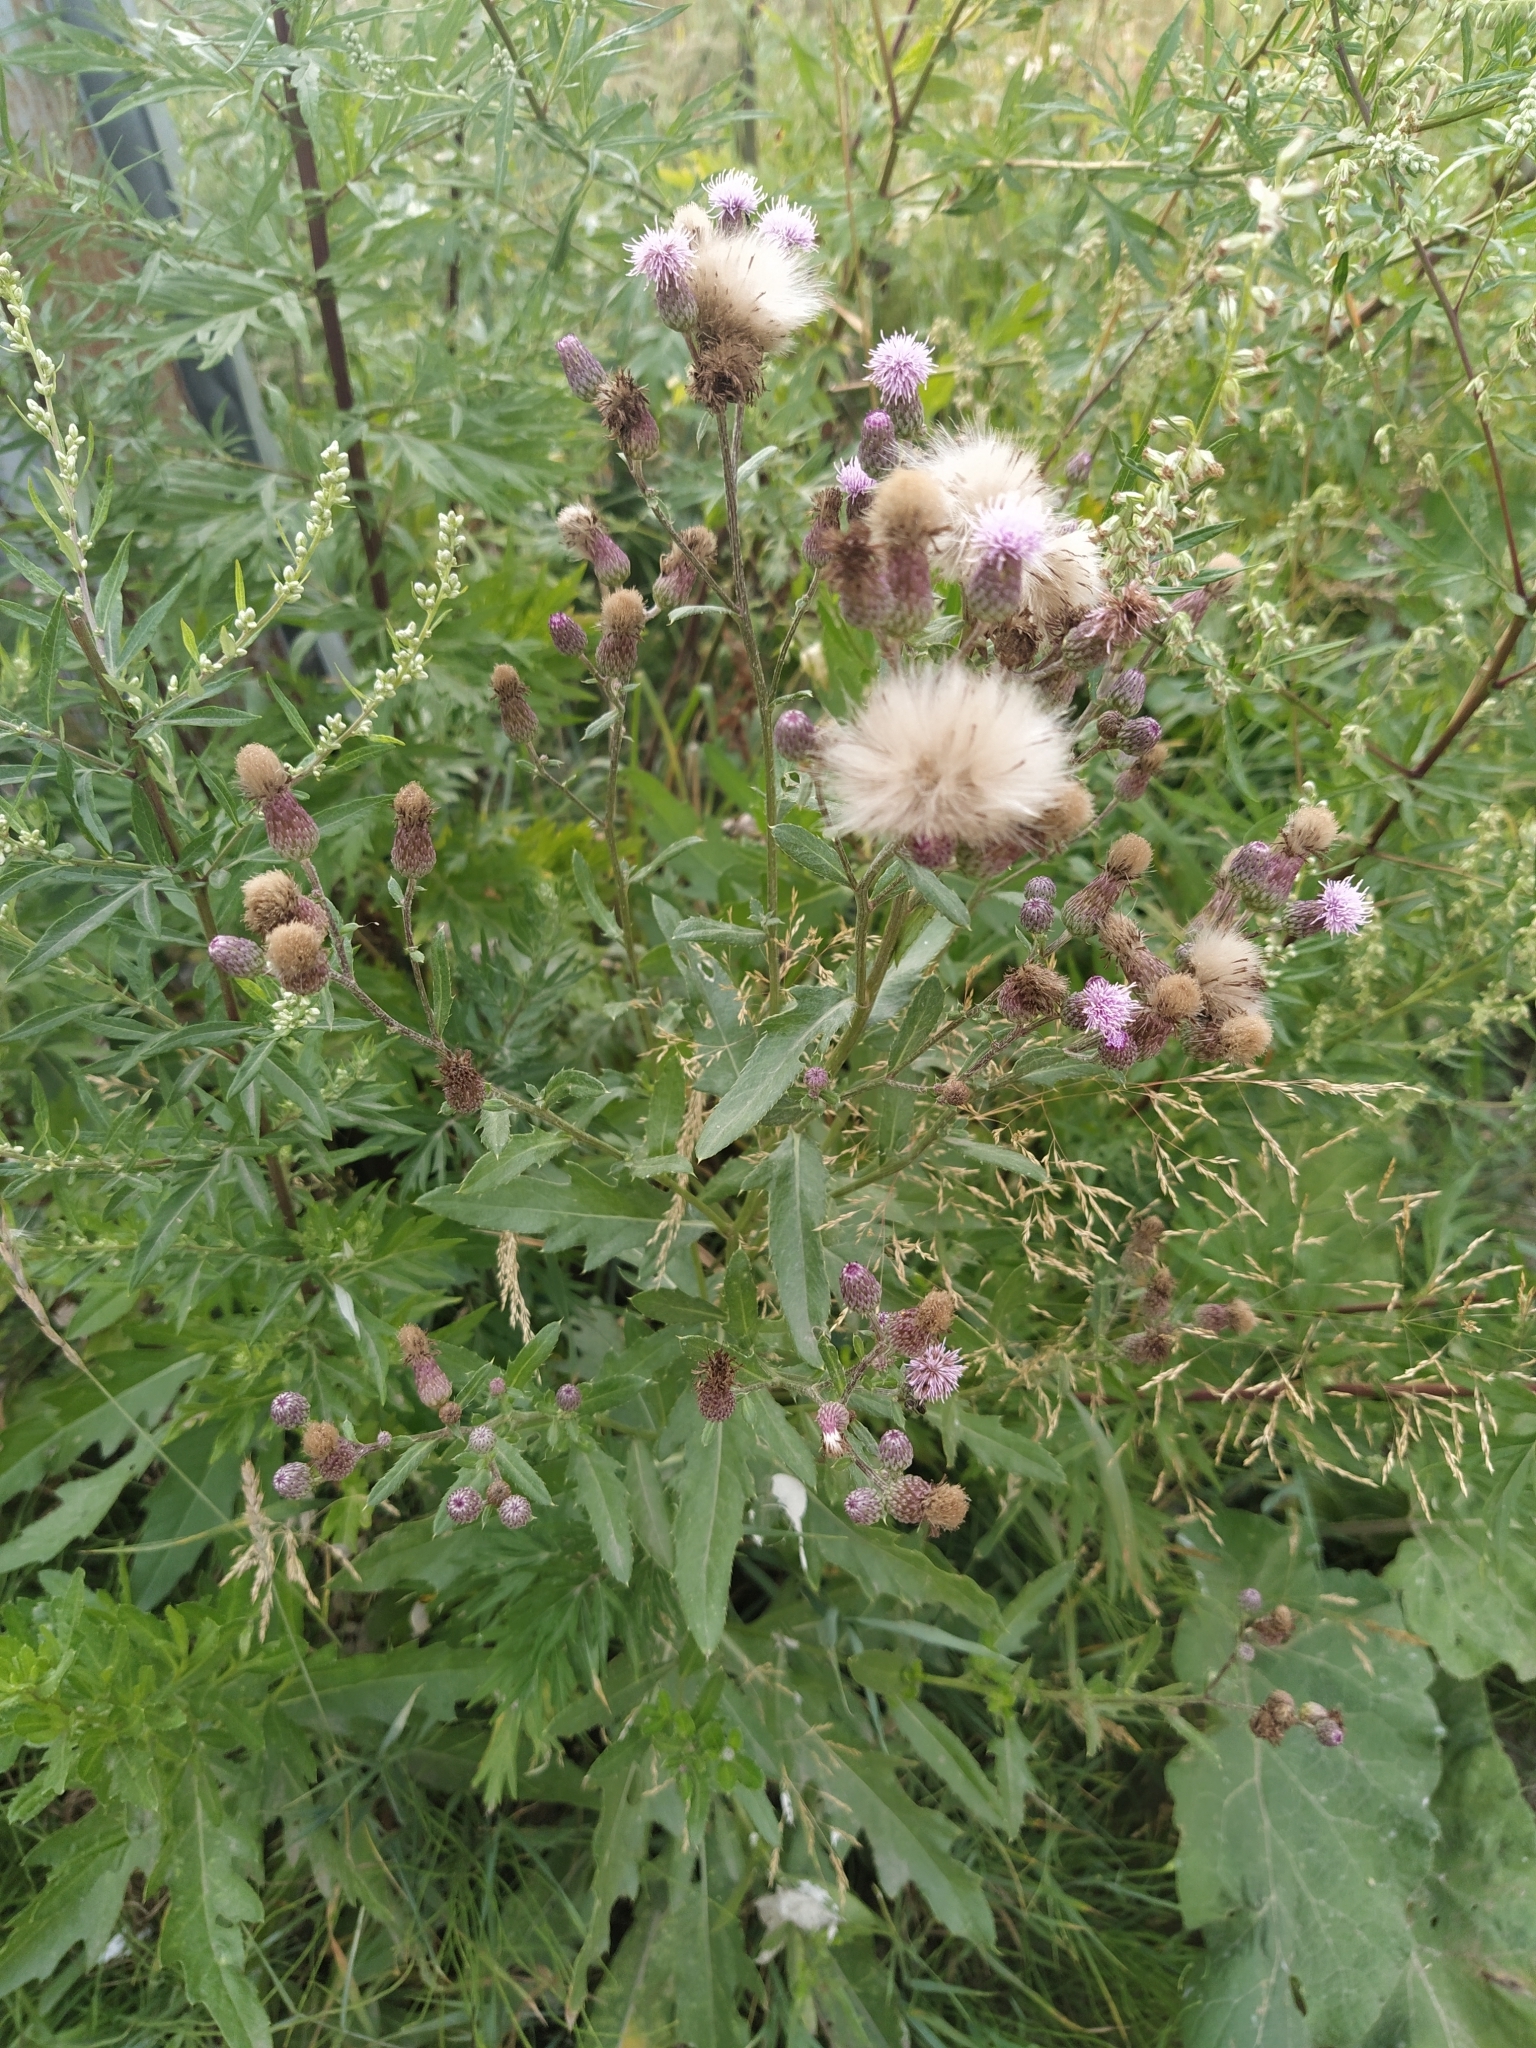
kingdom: Plantae
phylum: Tracheophyta
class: Magnoliopsida
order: Asterales
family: Asteraceae
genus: Cirsium
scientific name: Cirsium arvense
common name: Creeping thistle
